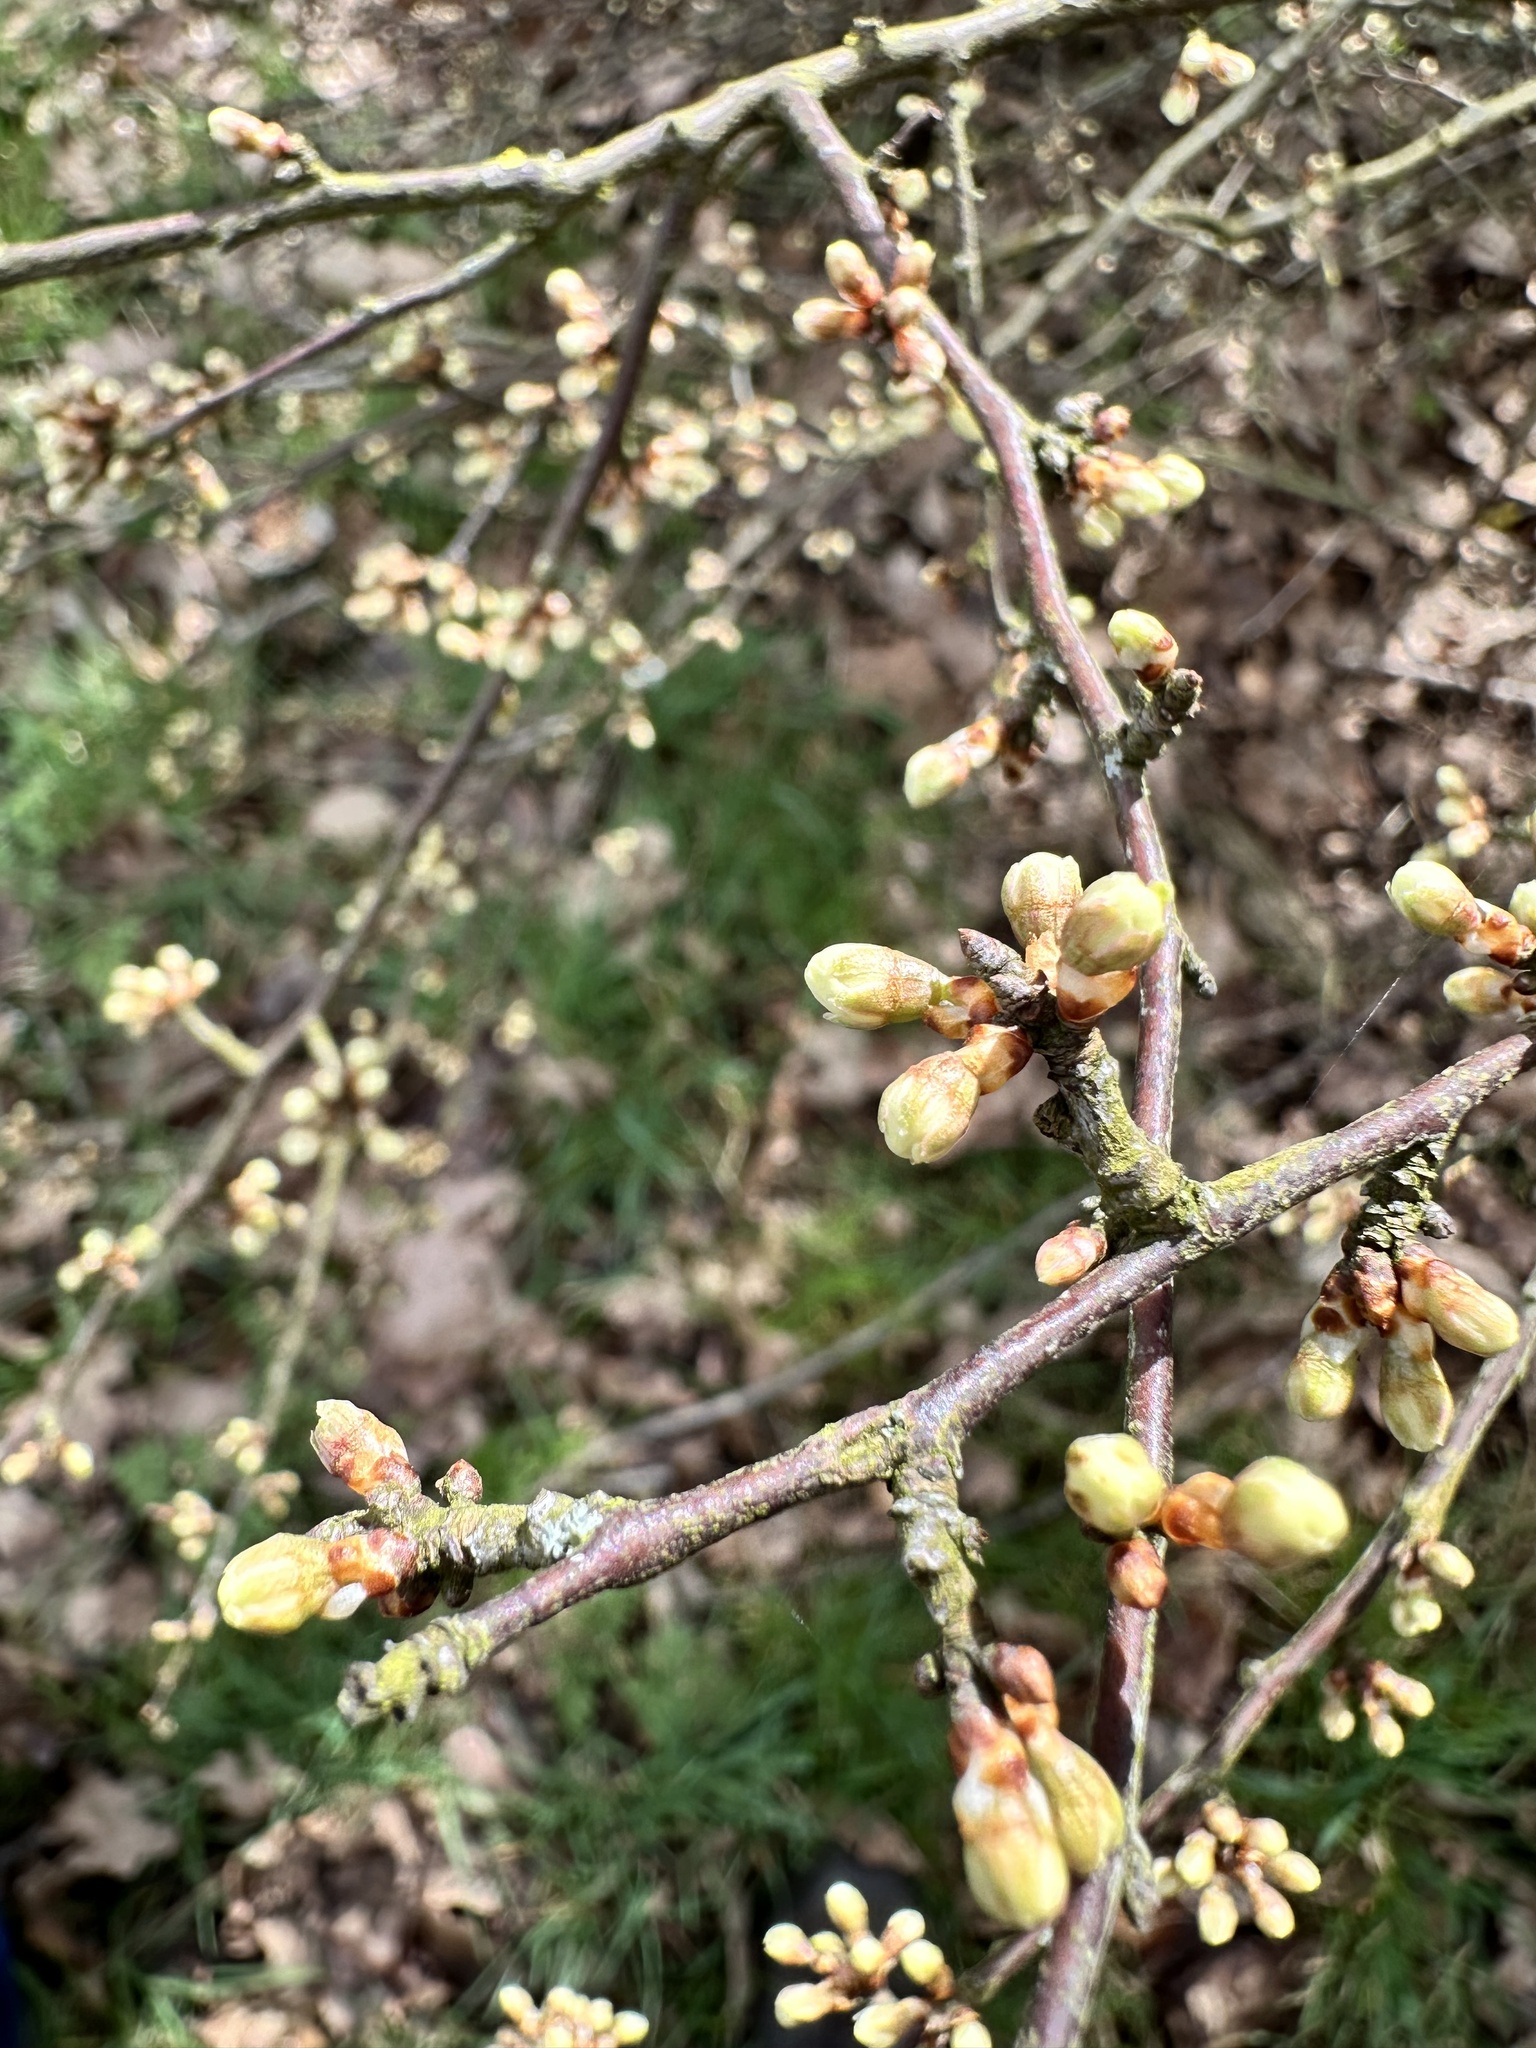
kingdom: Plantae
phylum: Tracheophyta
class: Magnoliopsida
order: Rosales
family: Rosaceae
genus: Prunus
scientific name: Prunus spinosa
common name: Blackthorn
